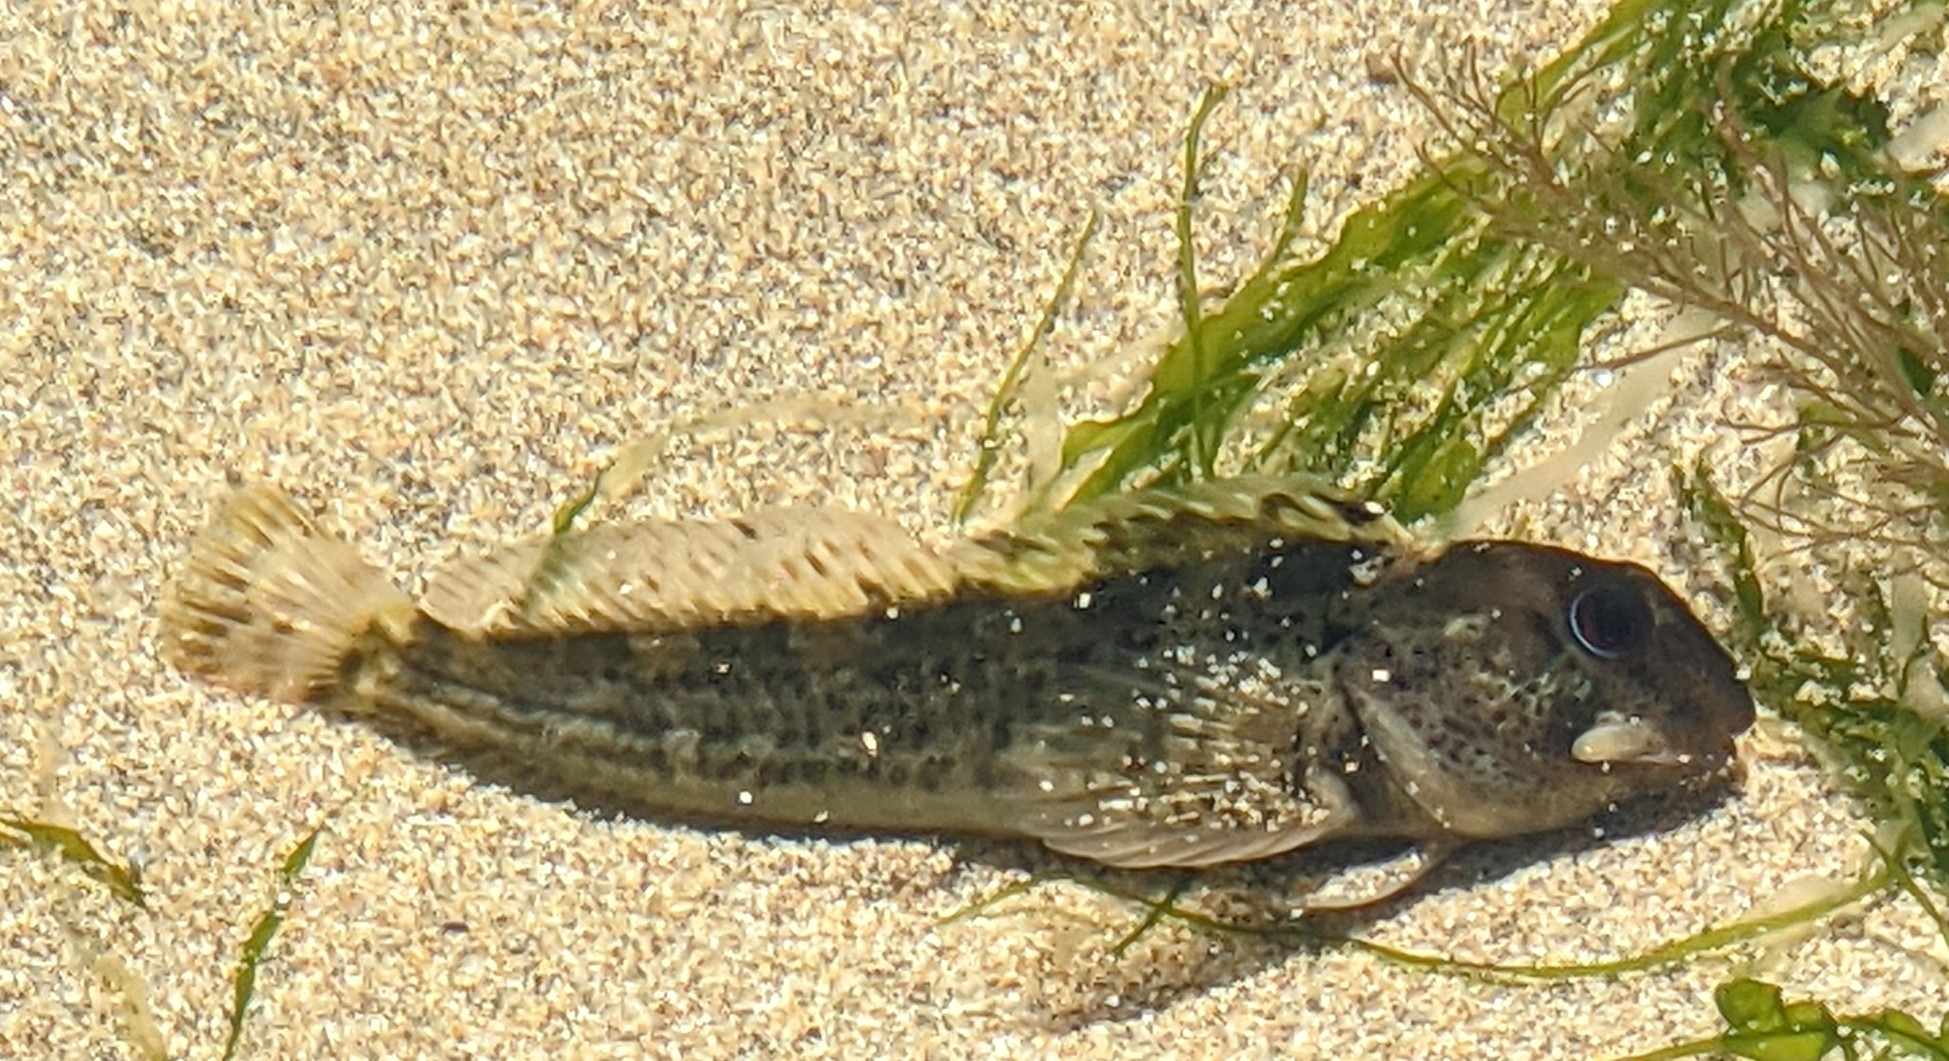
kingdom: Animalia
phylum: Chordata
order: Perciformes
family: Blenniidae
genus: Lipophrys
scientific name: Lipophrys pholis
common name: Shanny
